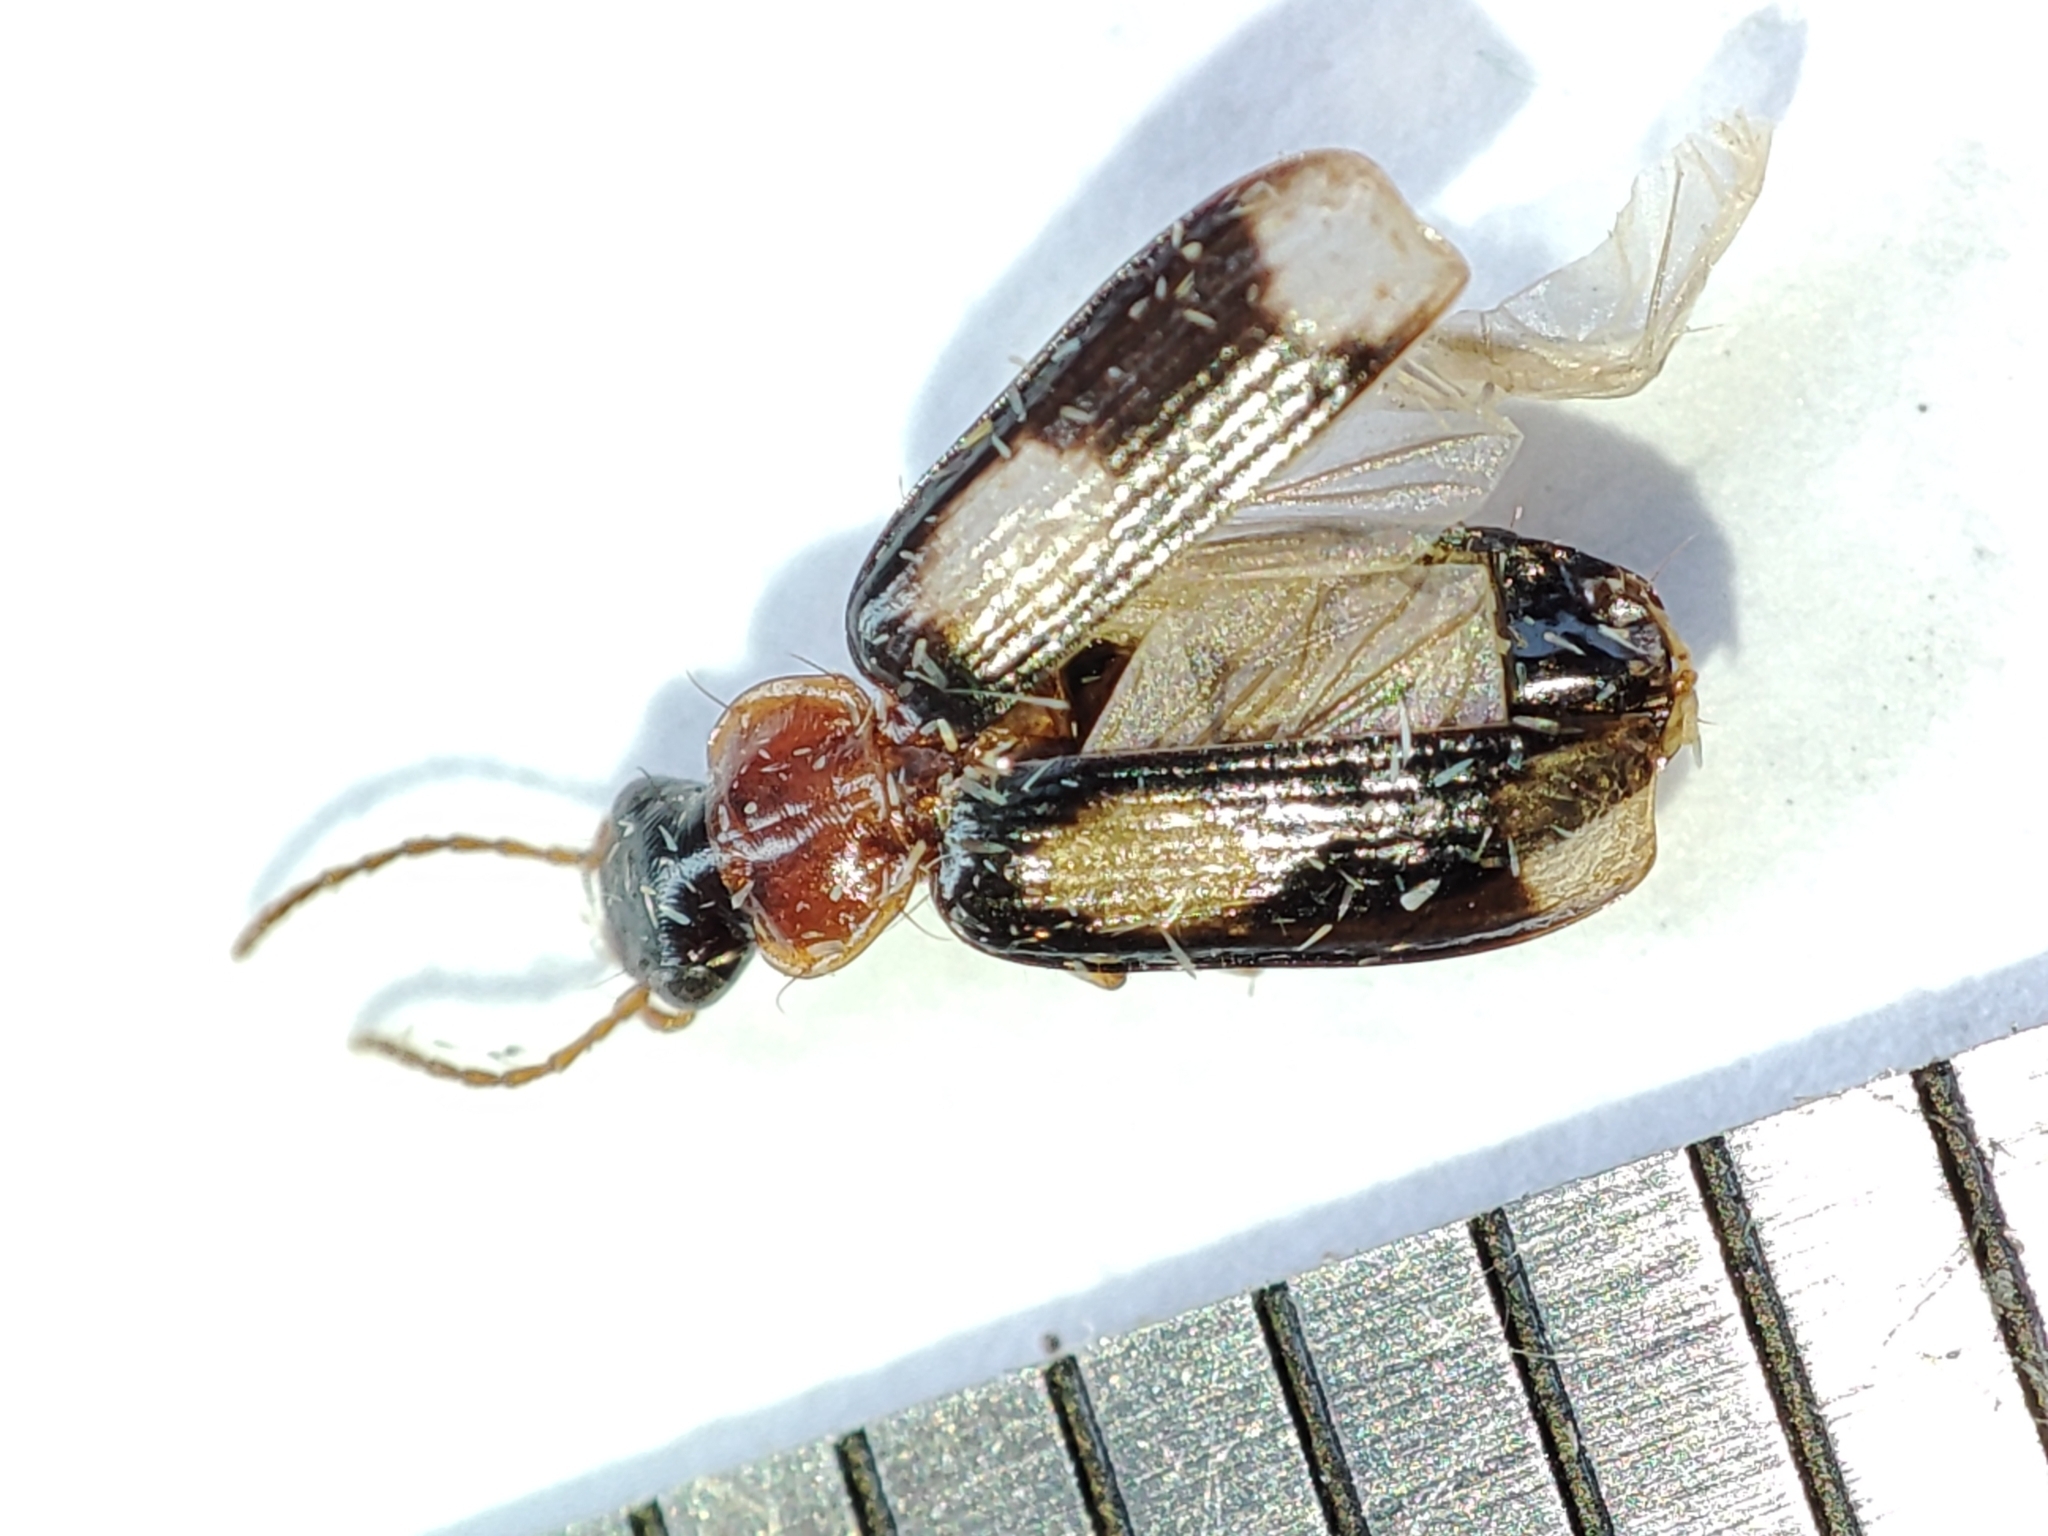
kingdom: Animalia
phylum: Arthropoda
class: Insecta
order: Coleoptera
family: Carabidae
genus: Dromius
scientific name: Dromius quadrimaculatus
